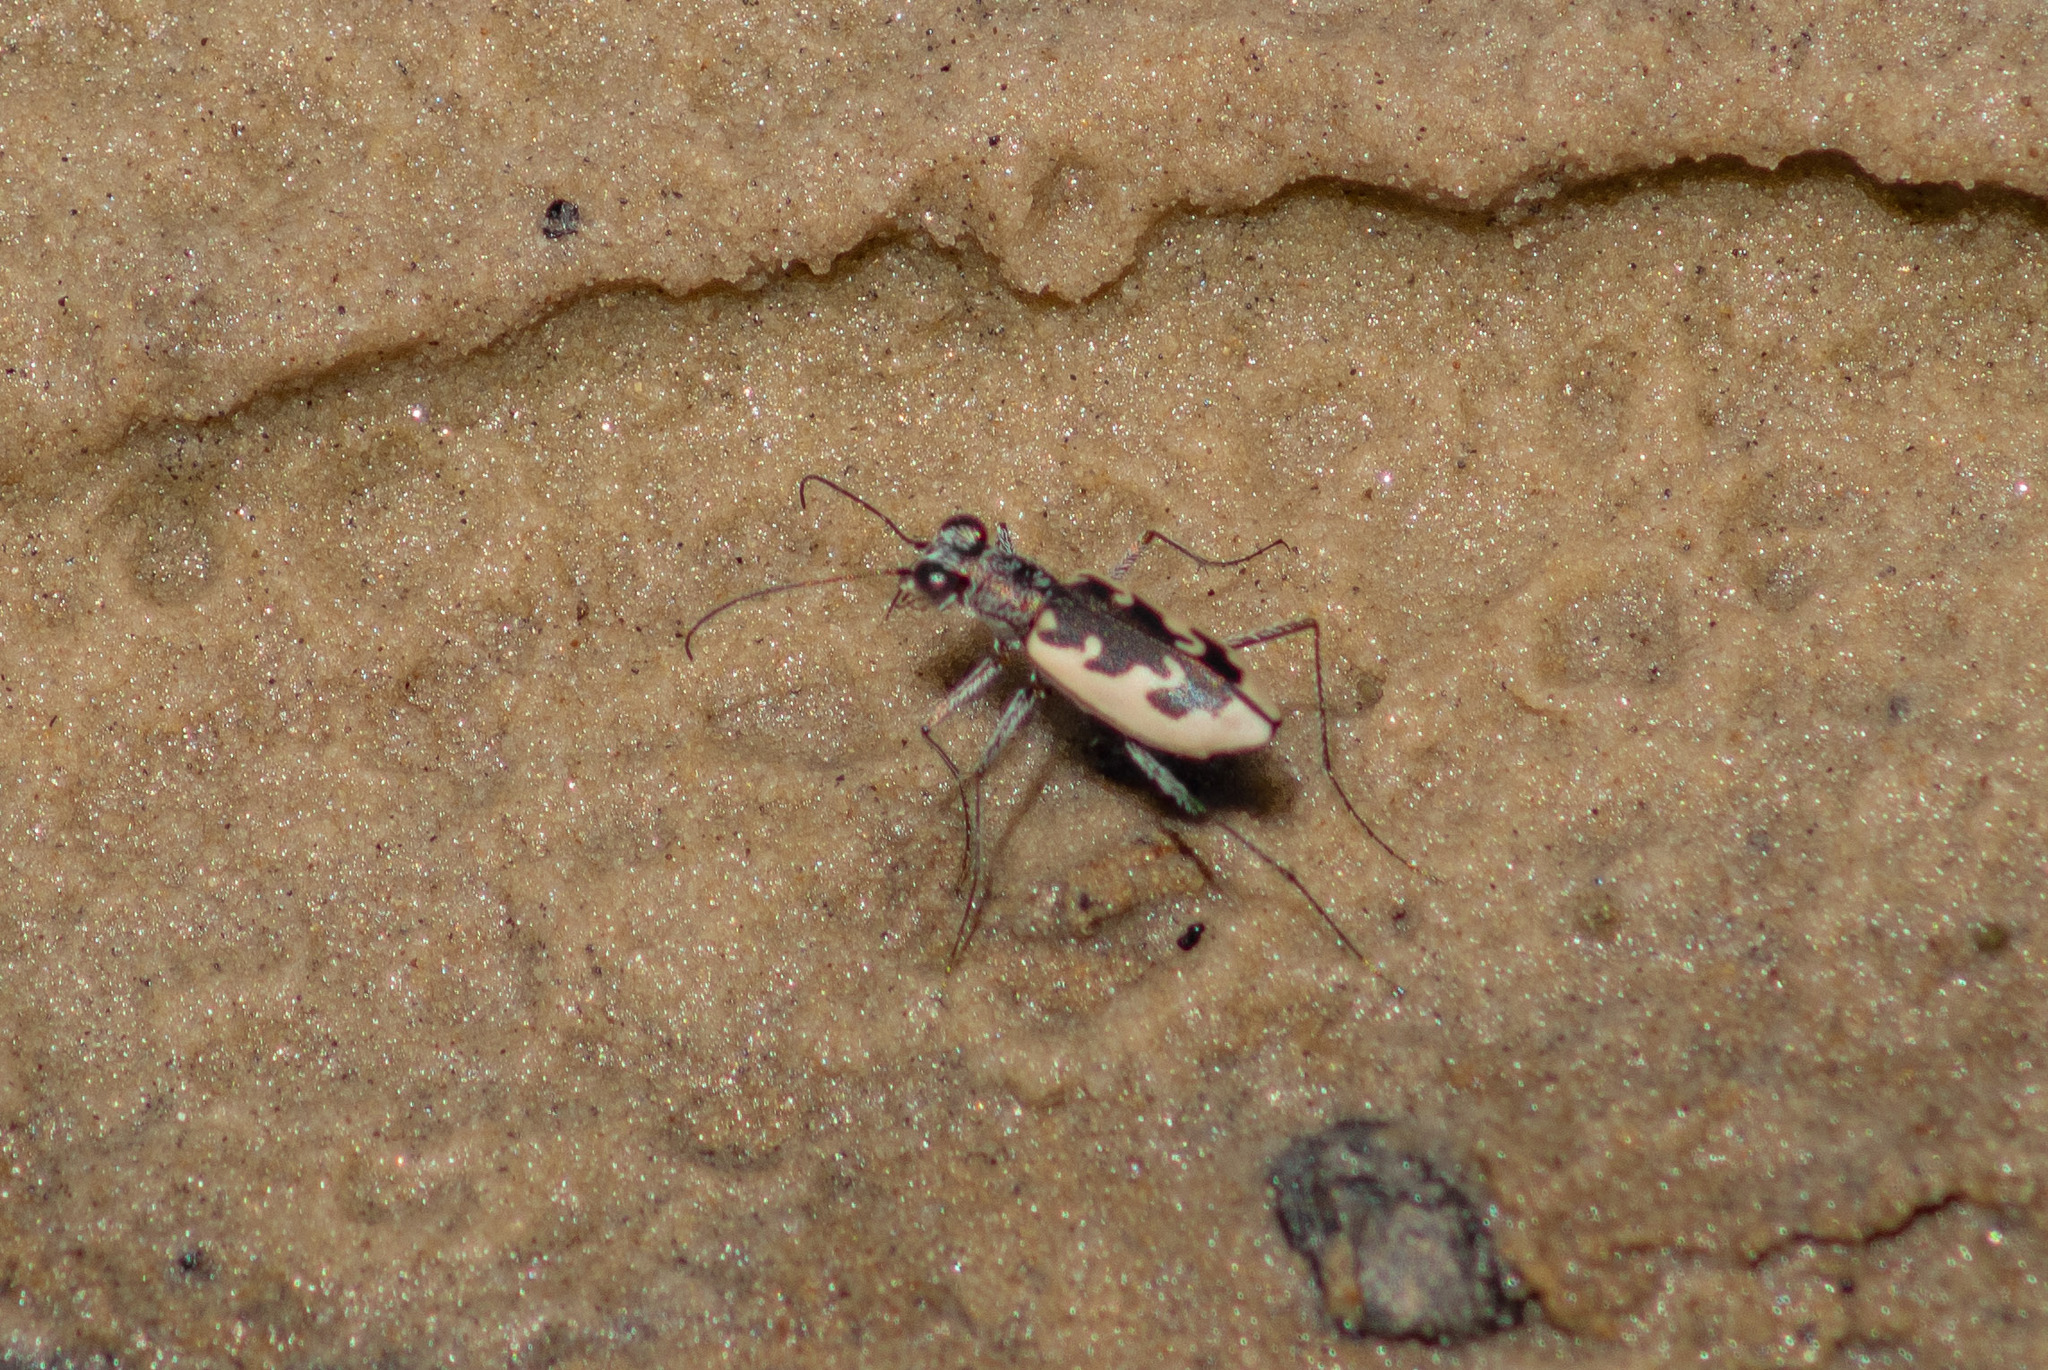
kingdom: Animalia
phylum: Arthropoda
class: Insecta
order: Coleoptera
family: Carabidae
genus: Ellipsoptera
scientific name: Ellipsoptera wapleri
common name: White-sand tiger beetle
